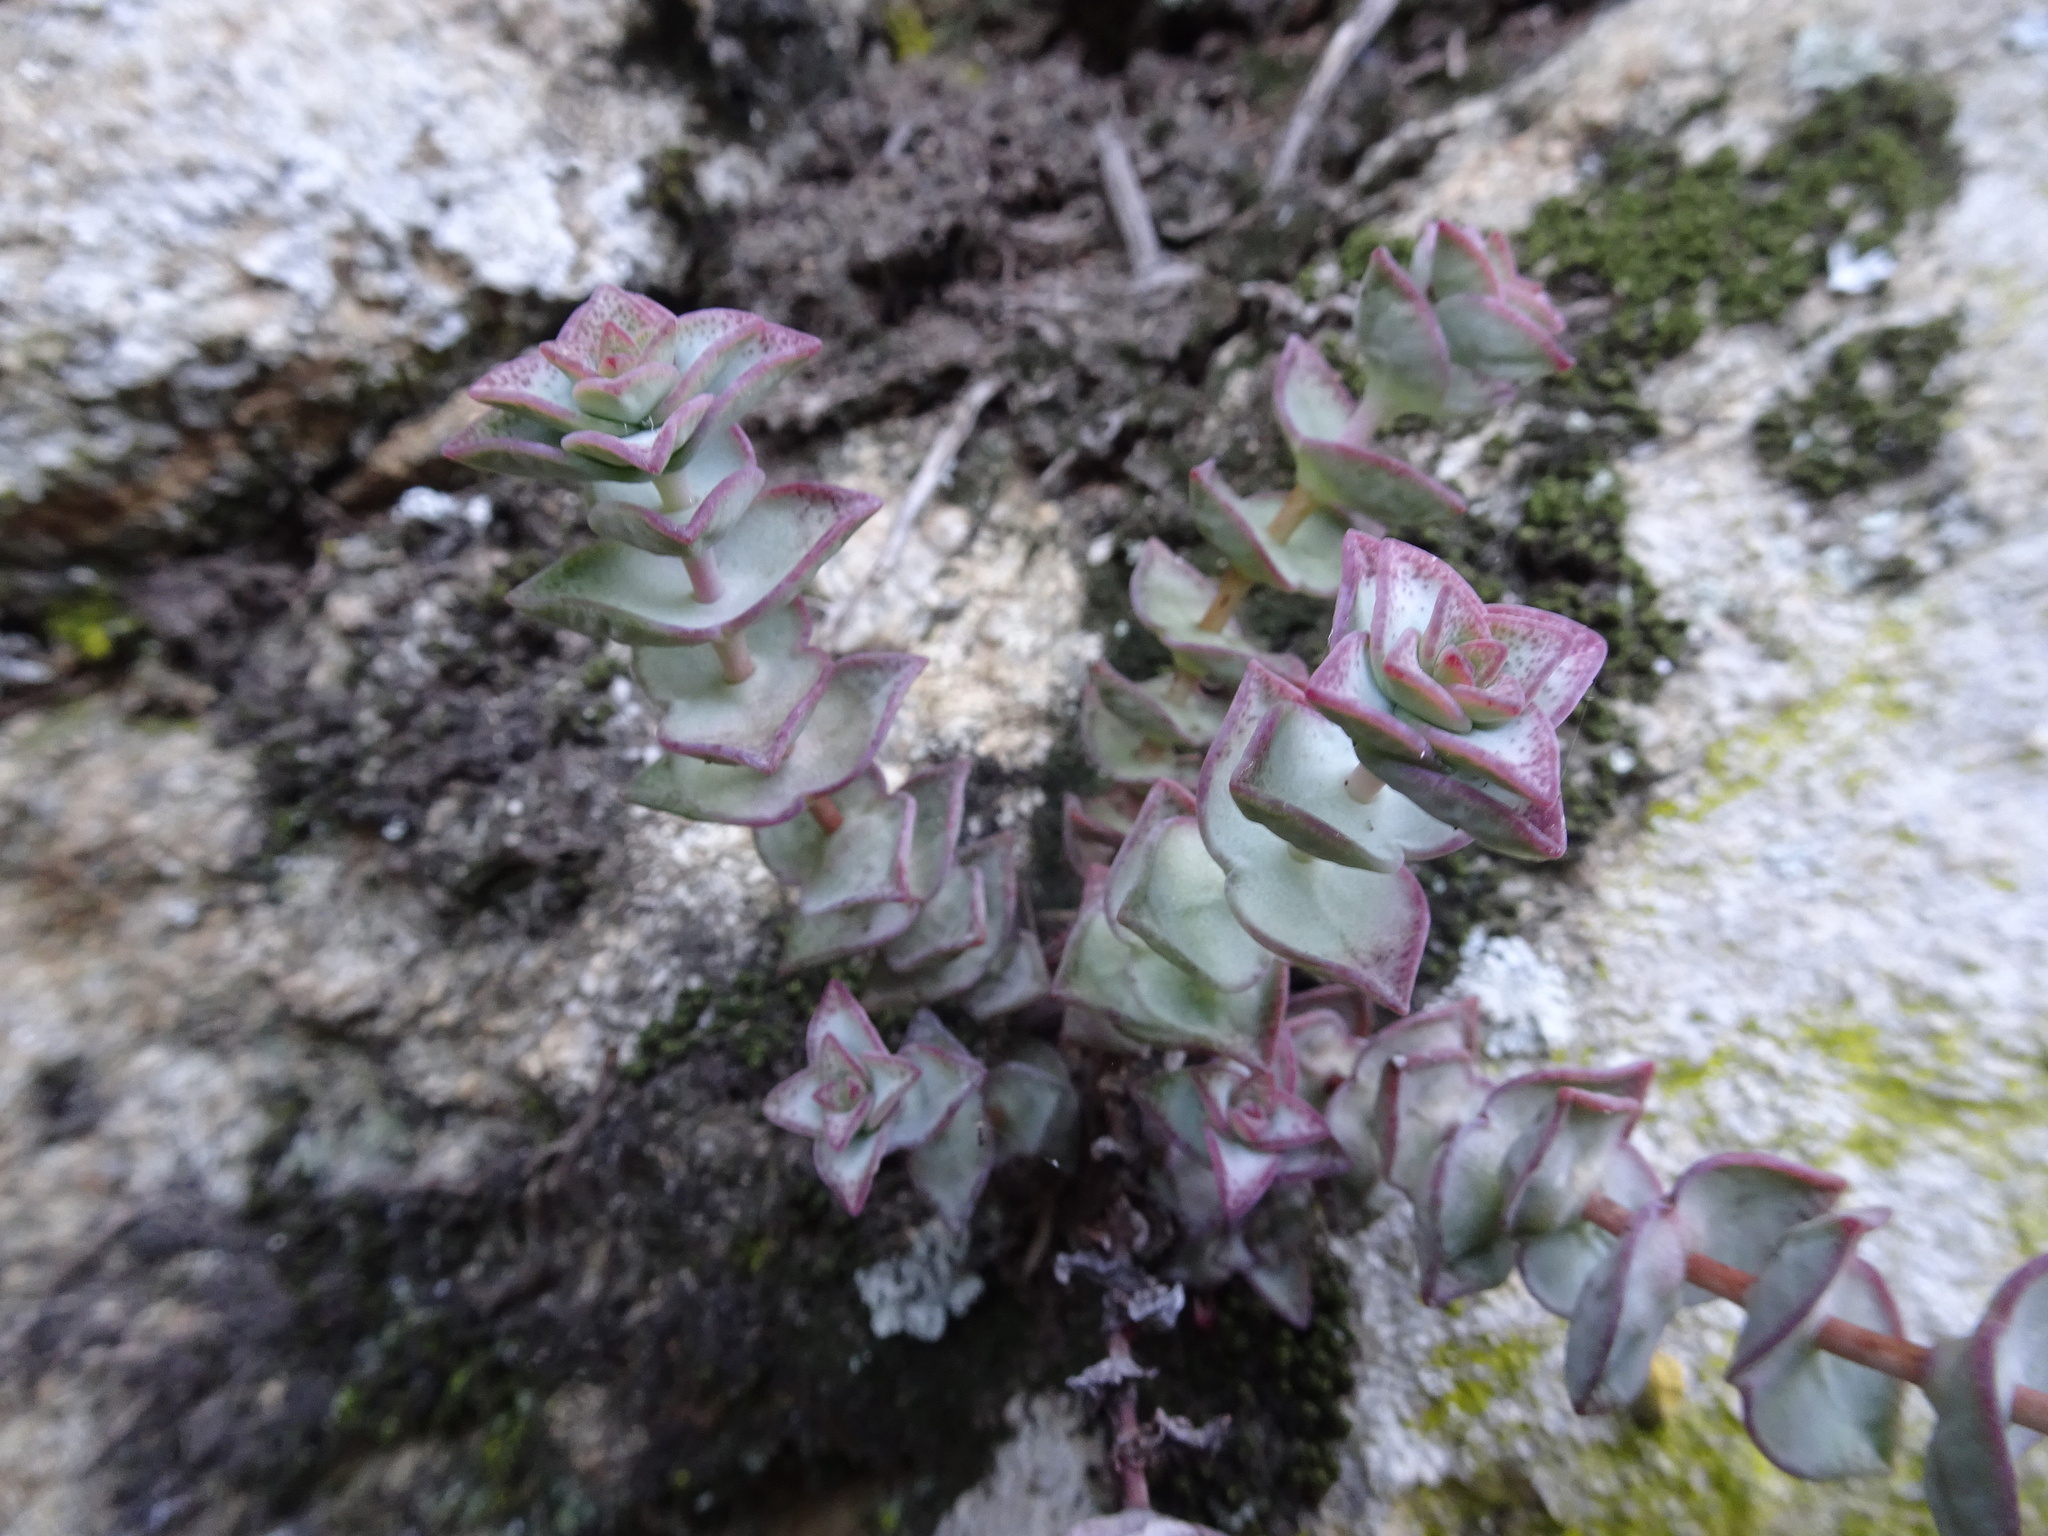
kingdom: Plantae
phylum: Tracheophyta
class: Magnoliopsida
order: Saxifragales
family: Crassulaceae
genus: Crassula
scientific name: Crassula perforata
